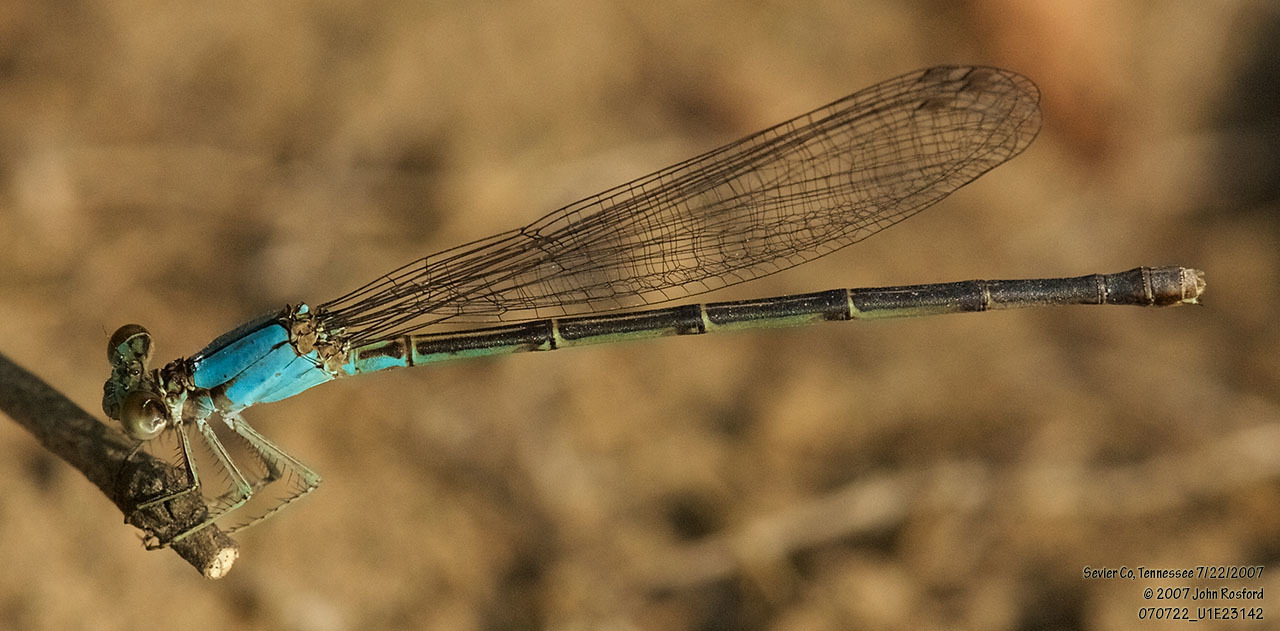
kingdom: Animalia
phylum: Arthropoda
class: Insecta
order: Odonata
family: Coenagrionidae
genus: Argia
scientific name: Argia apicalis
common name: Blue-fronted dancer
